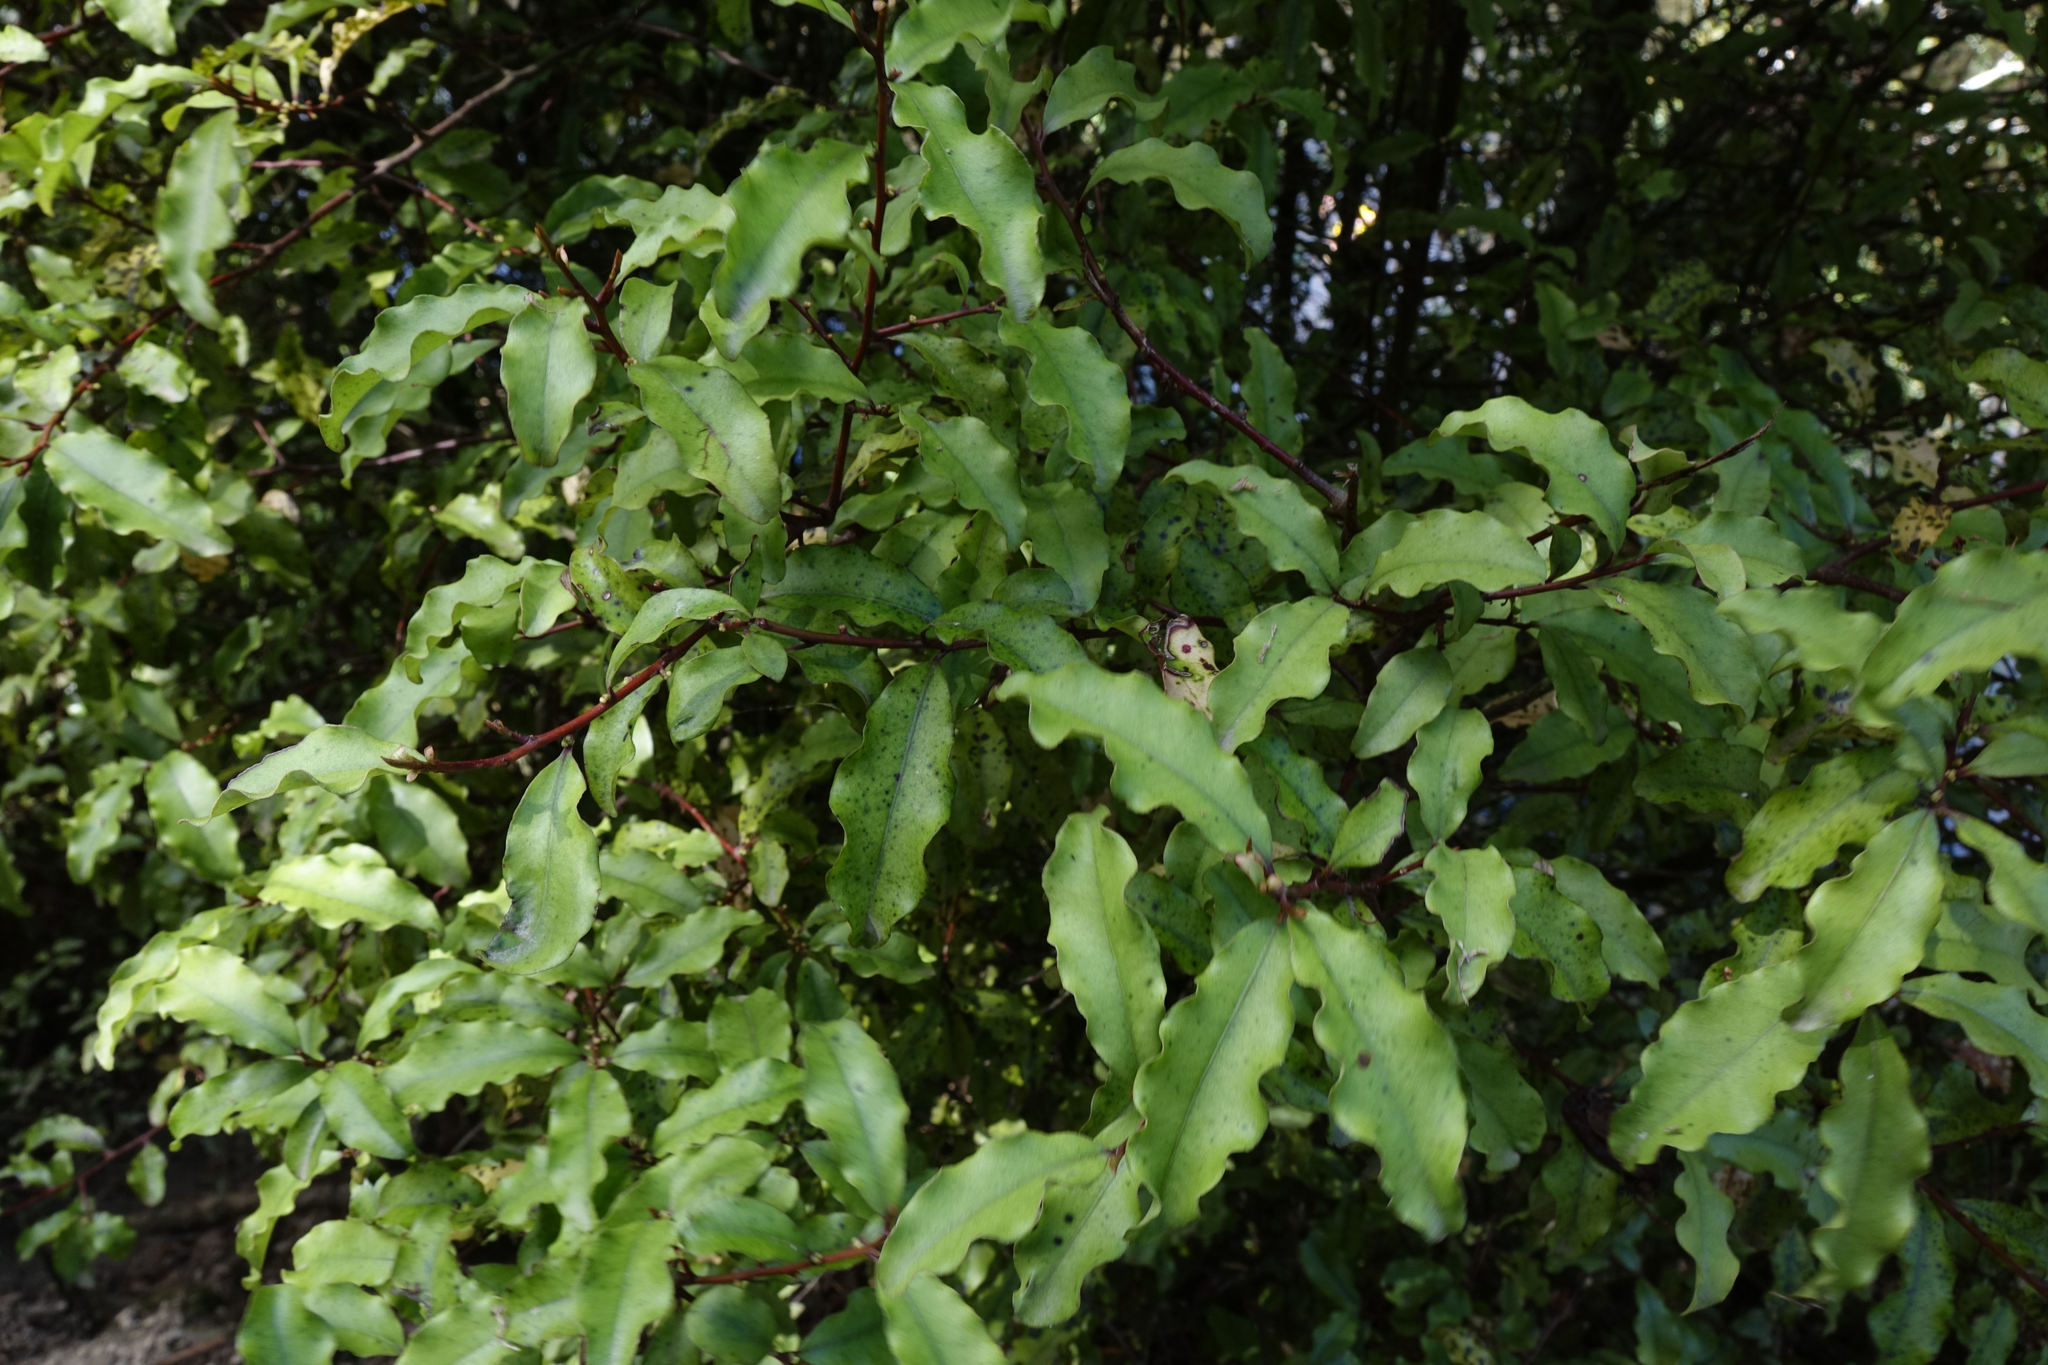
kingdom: Plantae
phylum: Tracheophyta
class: Magnoliopsida
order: Ericales
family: Primulaceae
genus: Myrsine
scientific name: Myrsine australis
